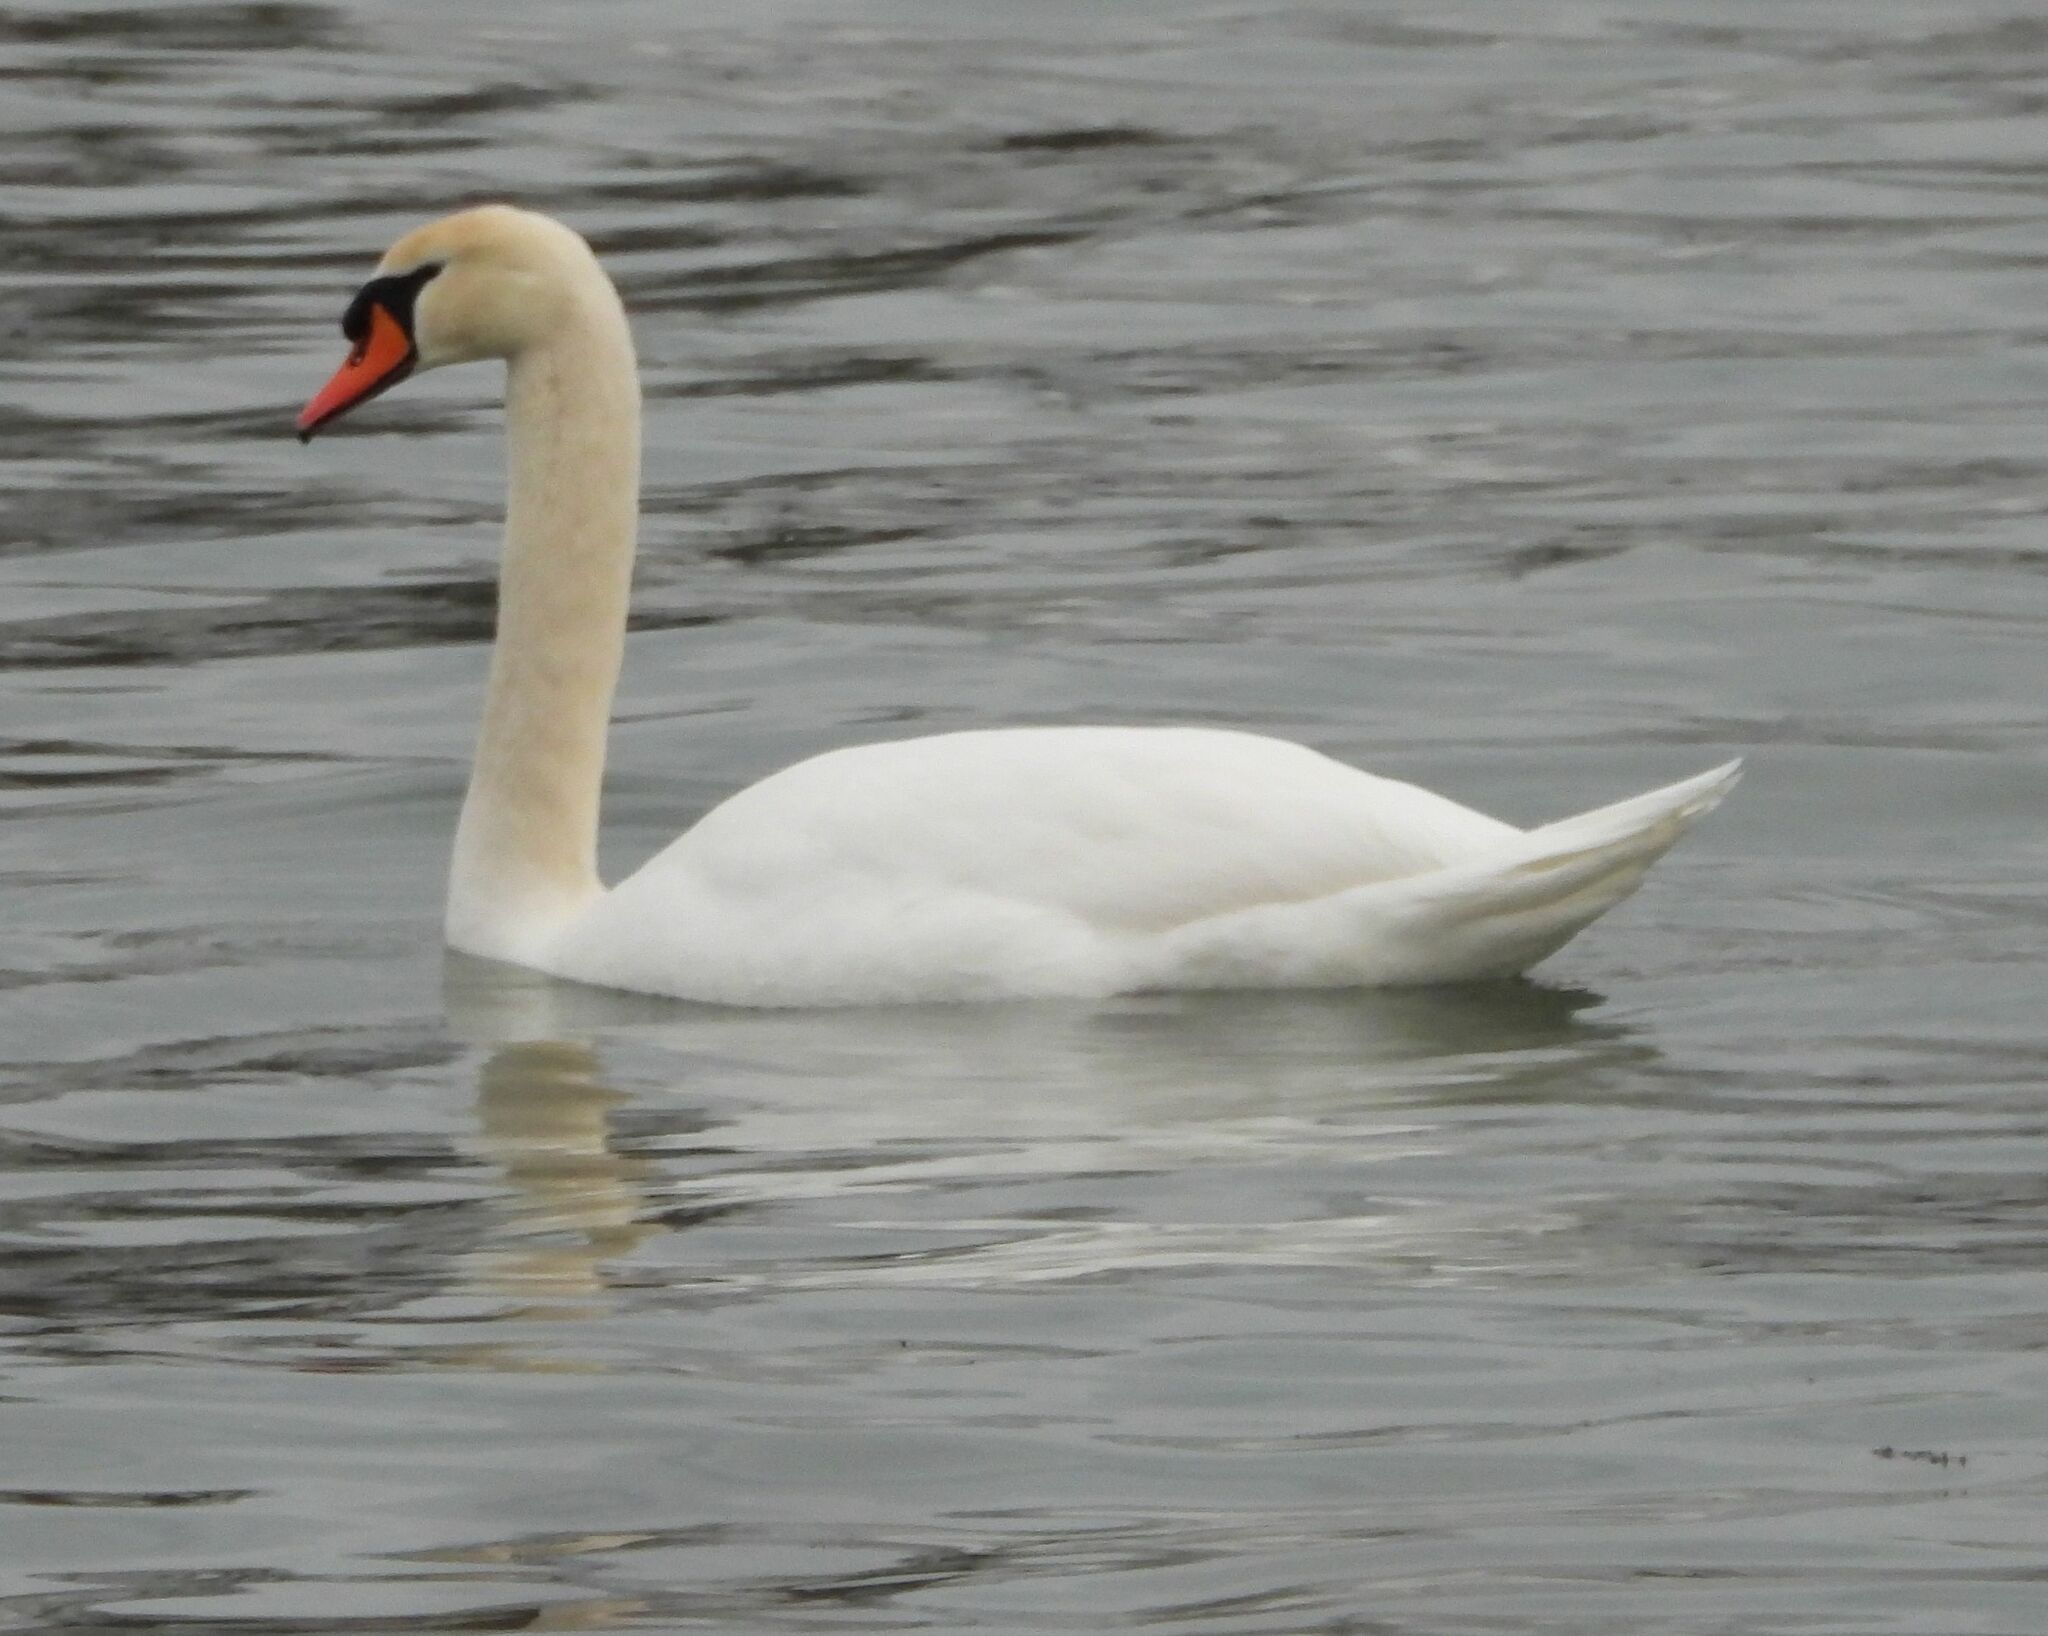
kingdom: Animalia
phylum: Chordata
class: Aves
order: Anseriformes
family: Anatidae
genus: Cygnus
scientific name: Cygnus olor
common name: Mute swan
